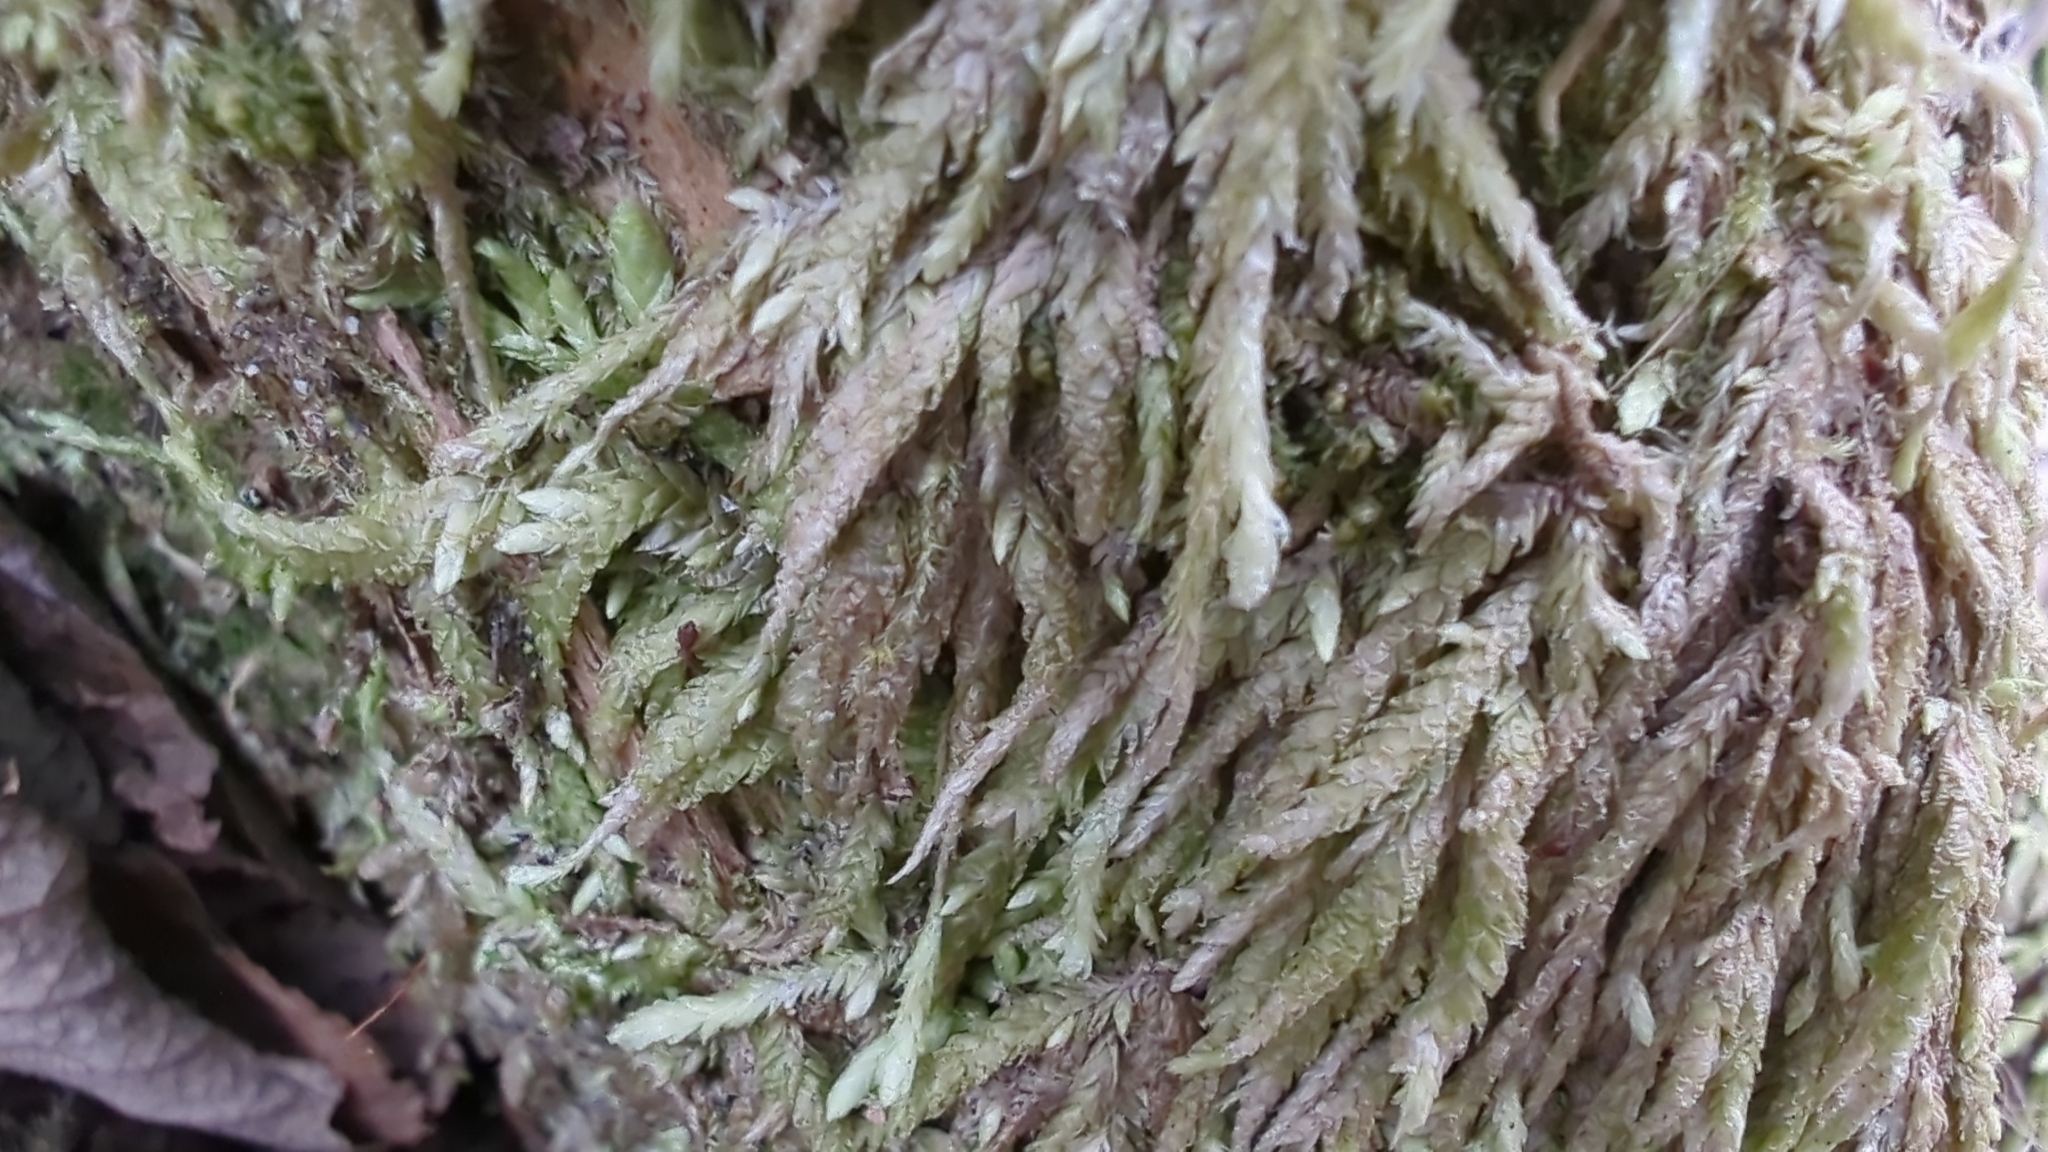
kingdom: Plantae
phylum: Bryophyta
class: Bryopsida
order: Hypnales
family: Plagiotheciaceae
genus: Plagiothecium
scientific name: Plagiothecium undulatum
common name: Waved silk-moss
